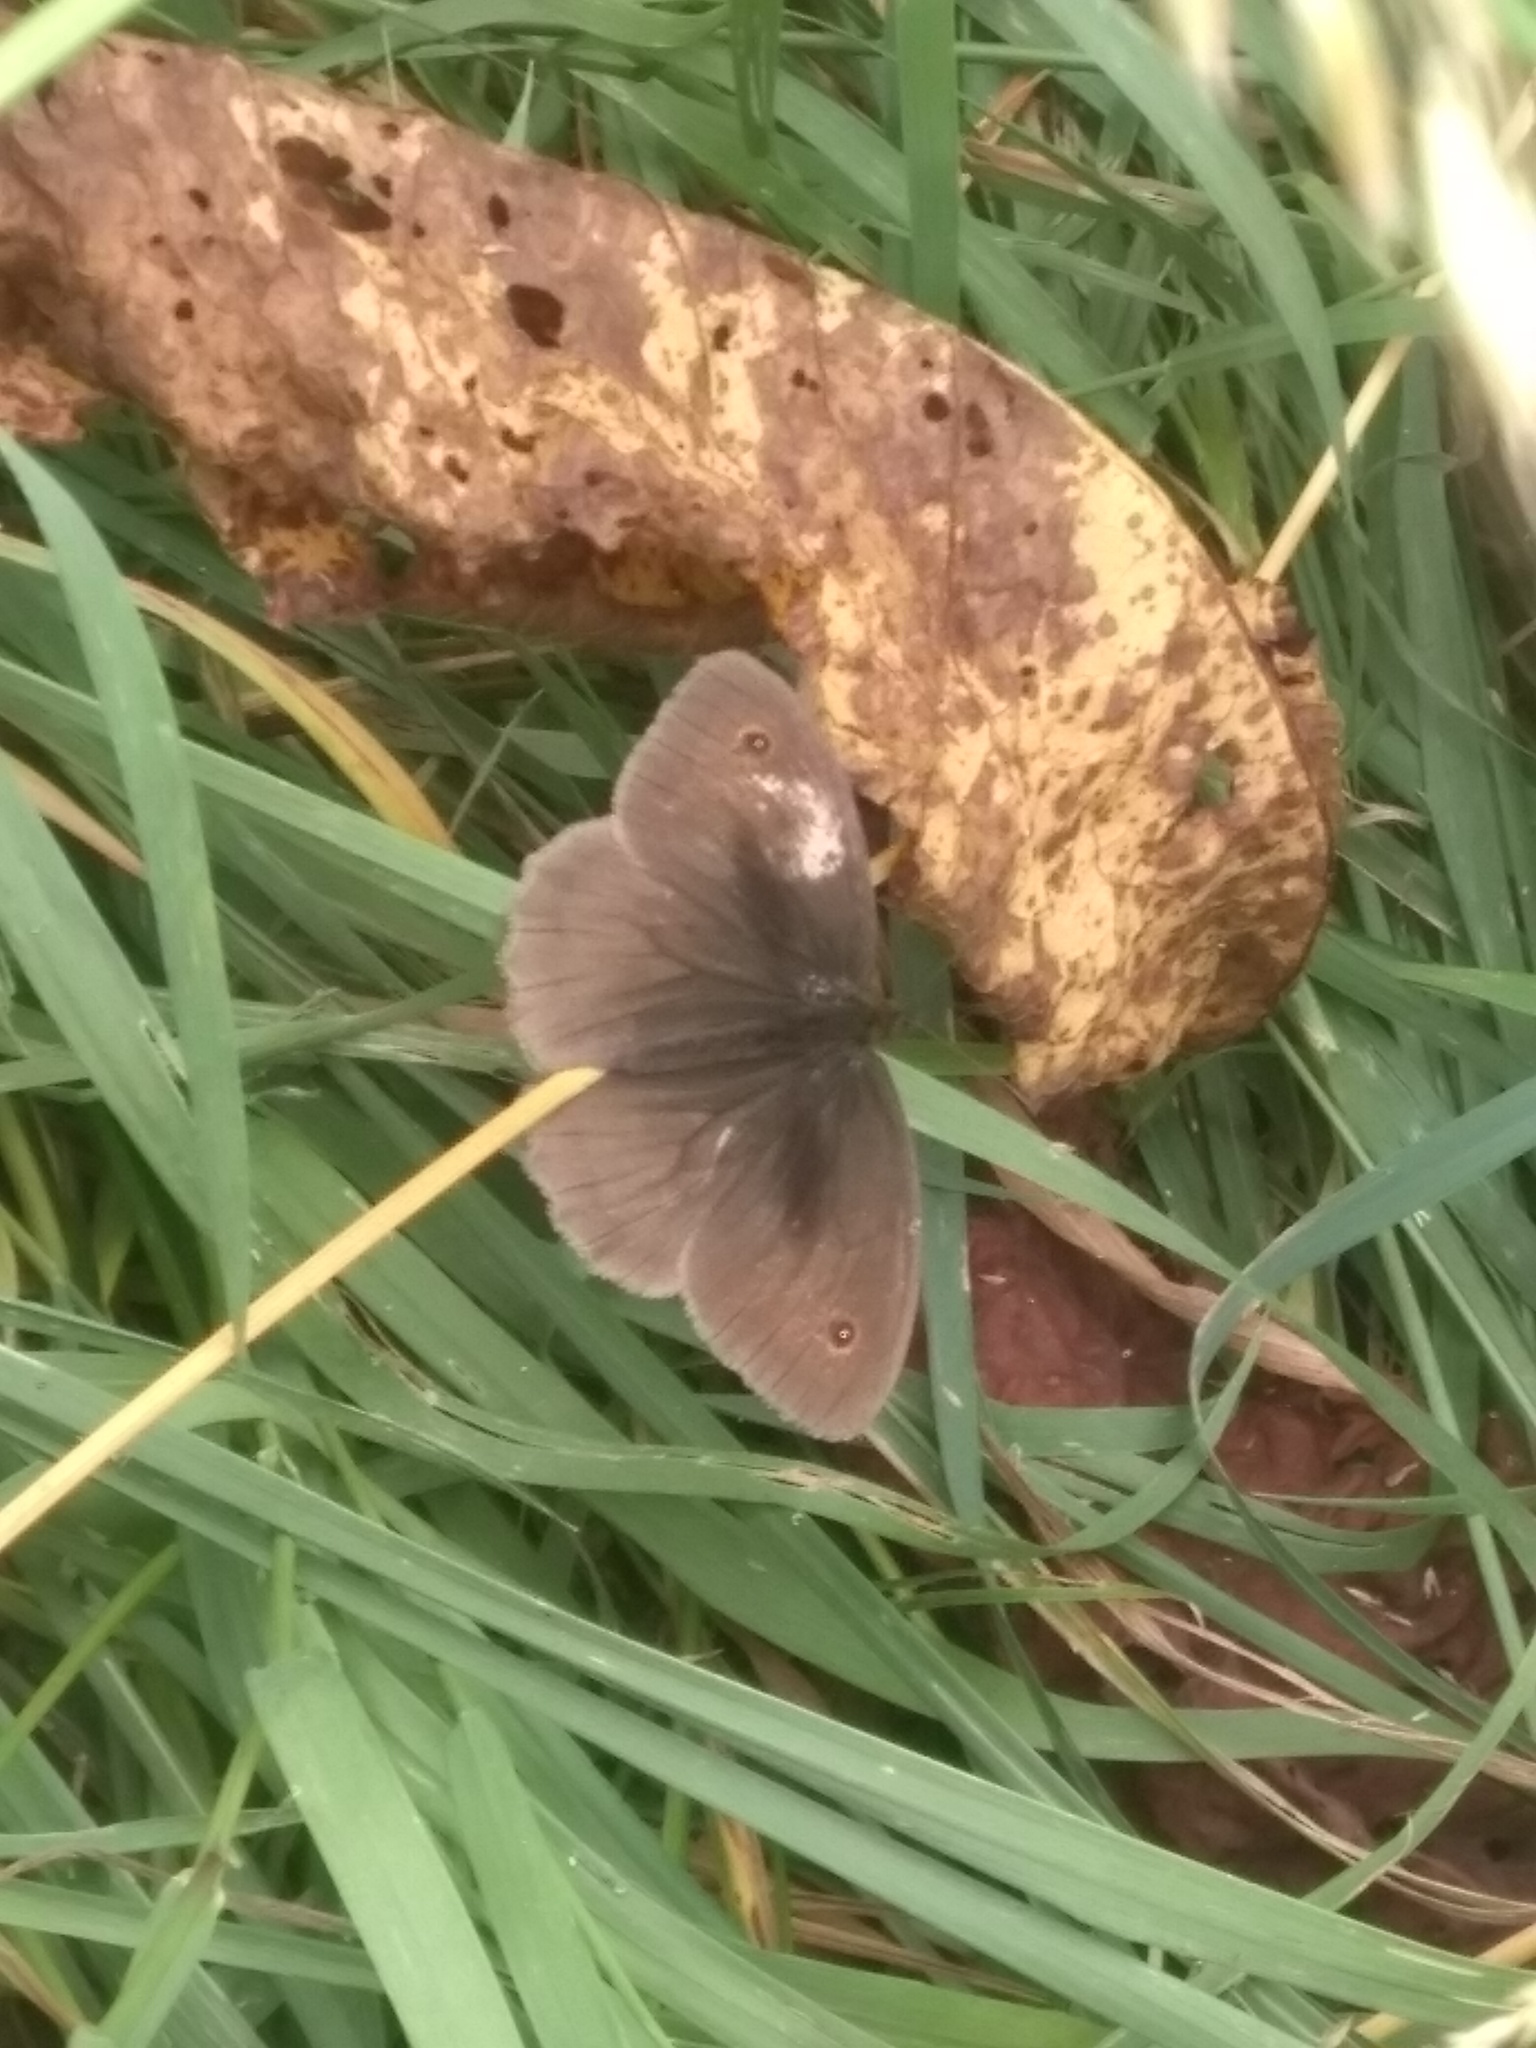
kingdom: Animalia
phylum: Arthropoda
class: Insecta
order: Lepidoptera
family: Nymphalidae
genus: Aphantopus
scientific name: Aphantopus hyperantus
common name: Ringlet
